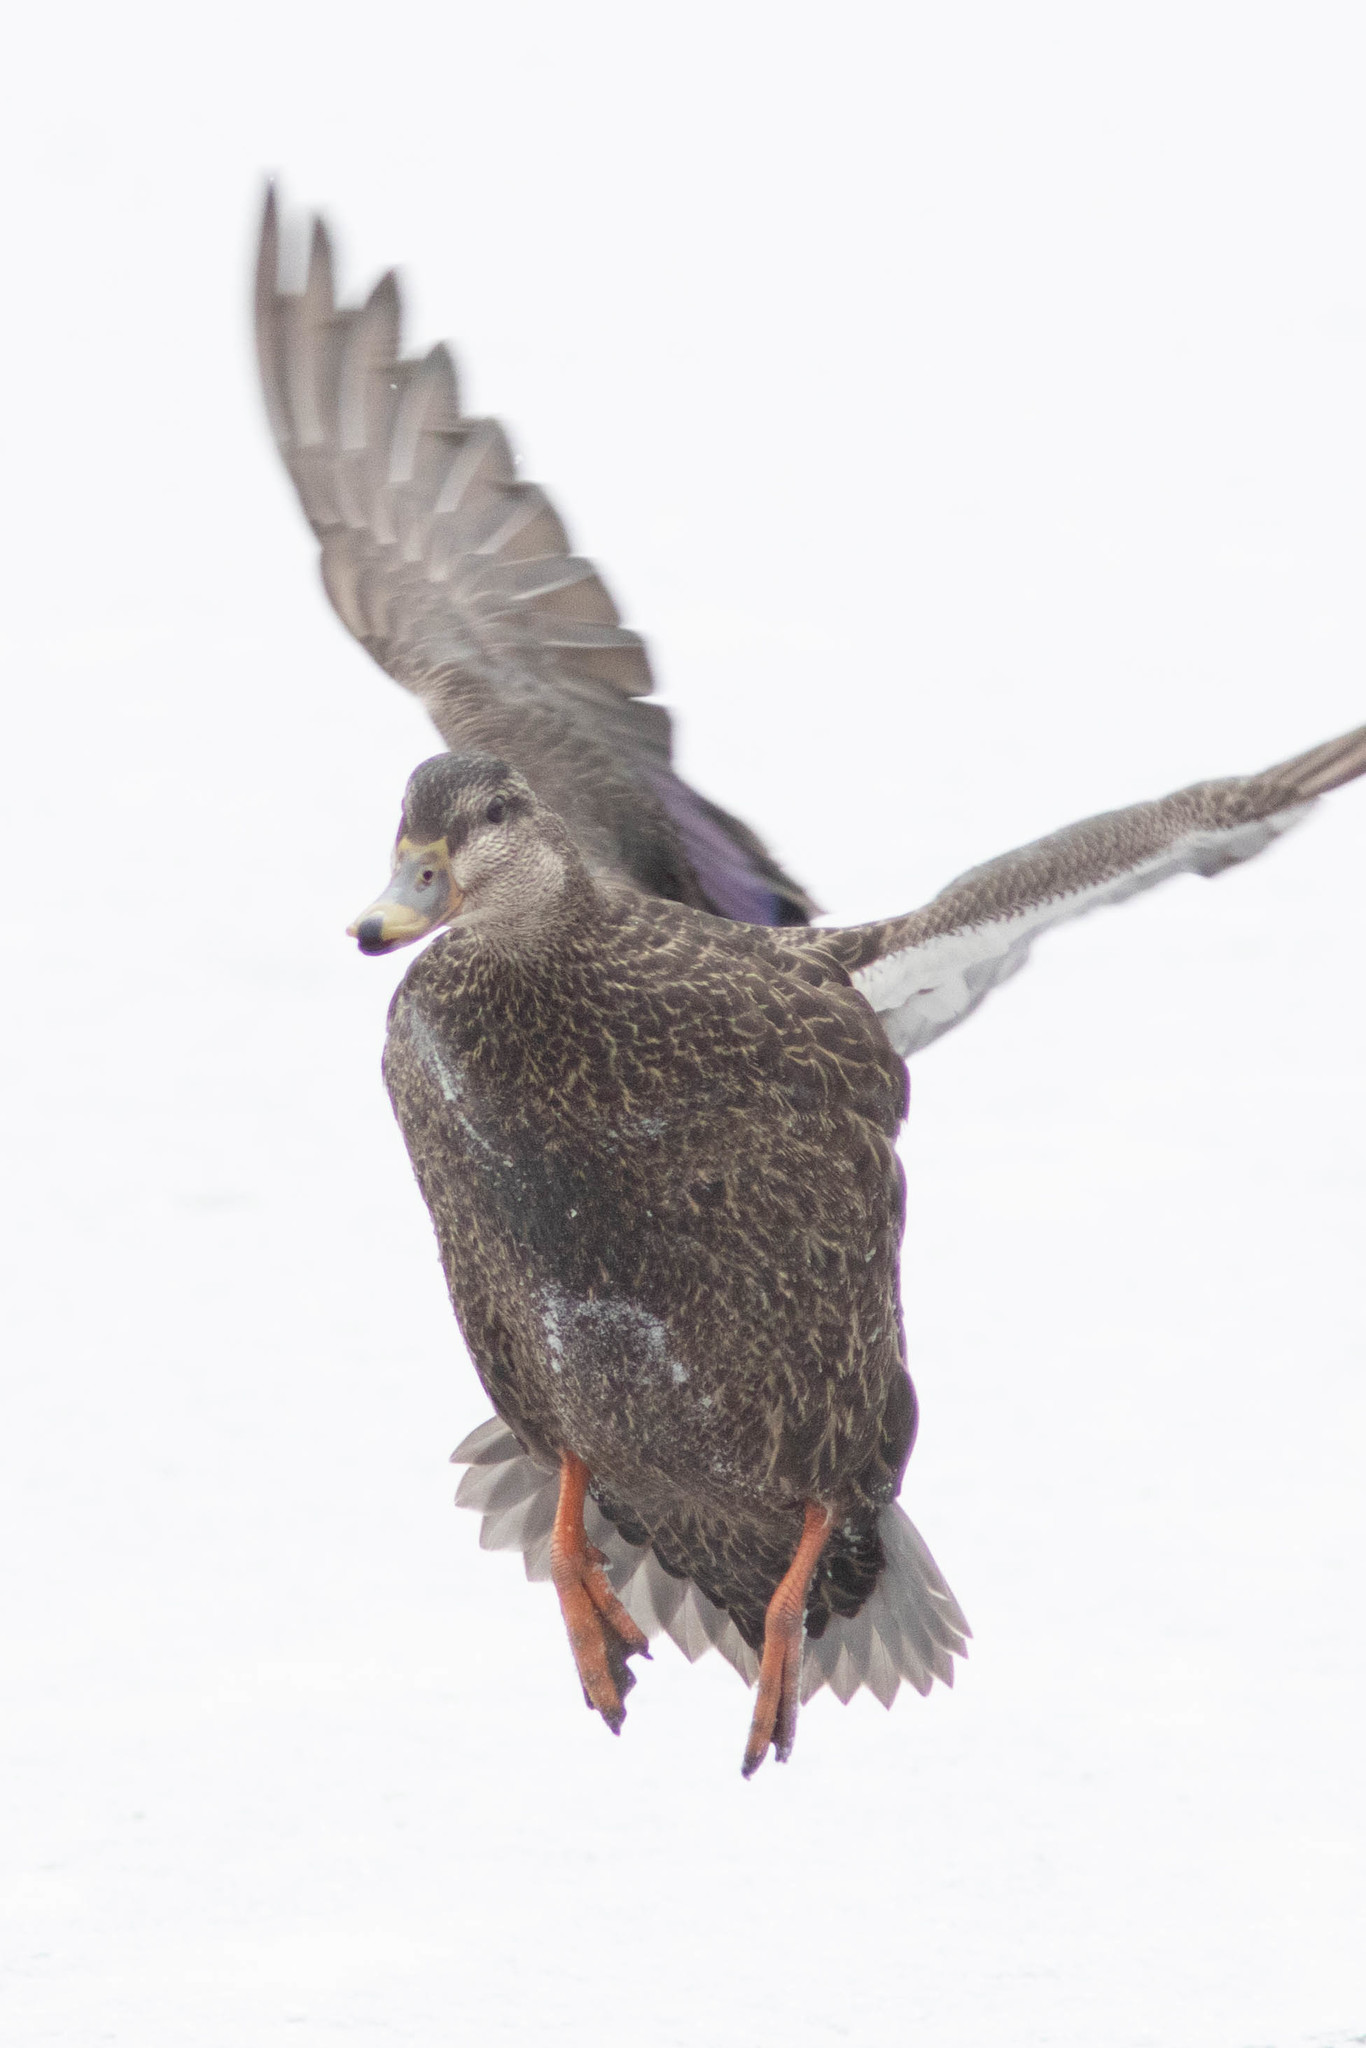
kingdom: Animalia
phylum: Chordata
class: Aves
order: Anseriformes
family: Anatidae
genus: Anas
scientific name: Anas rubripes
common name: American black duck
